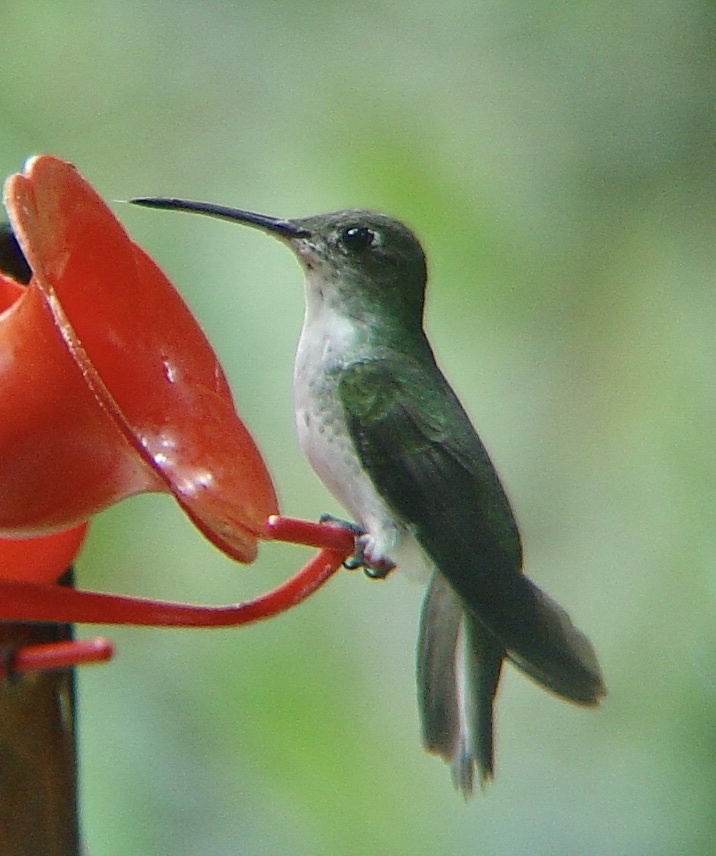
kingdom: Animalia
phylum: Chordata
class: Aves
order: Apodiformes
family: Trochilidae
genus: Elliotomyia
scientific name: Elliotomyia viridicauda
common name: Green-and-white hummingbird
